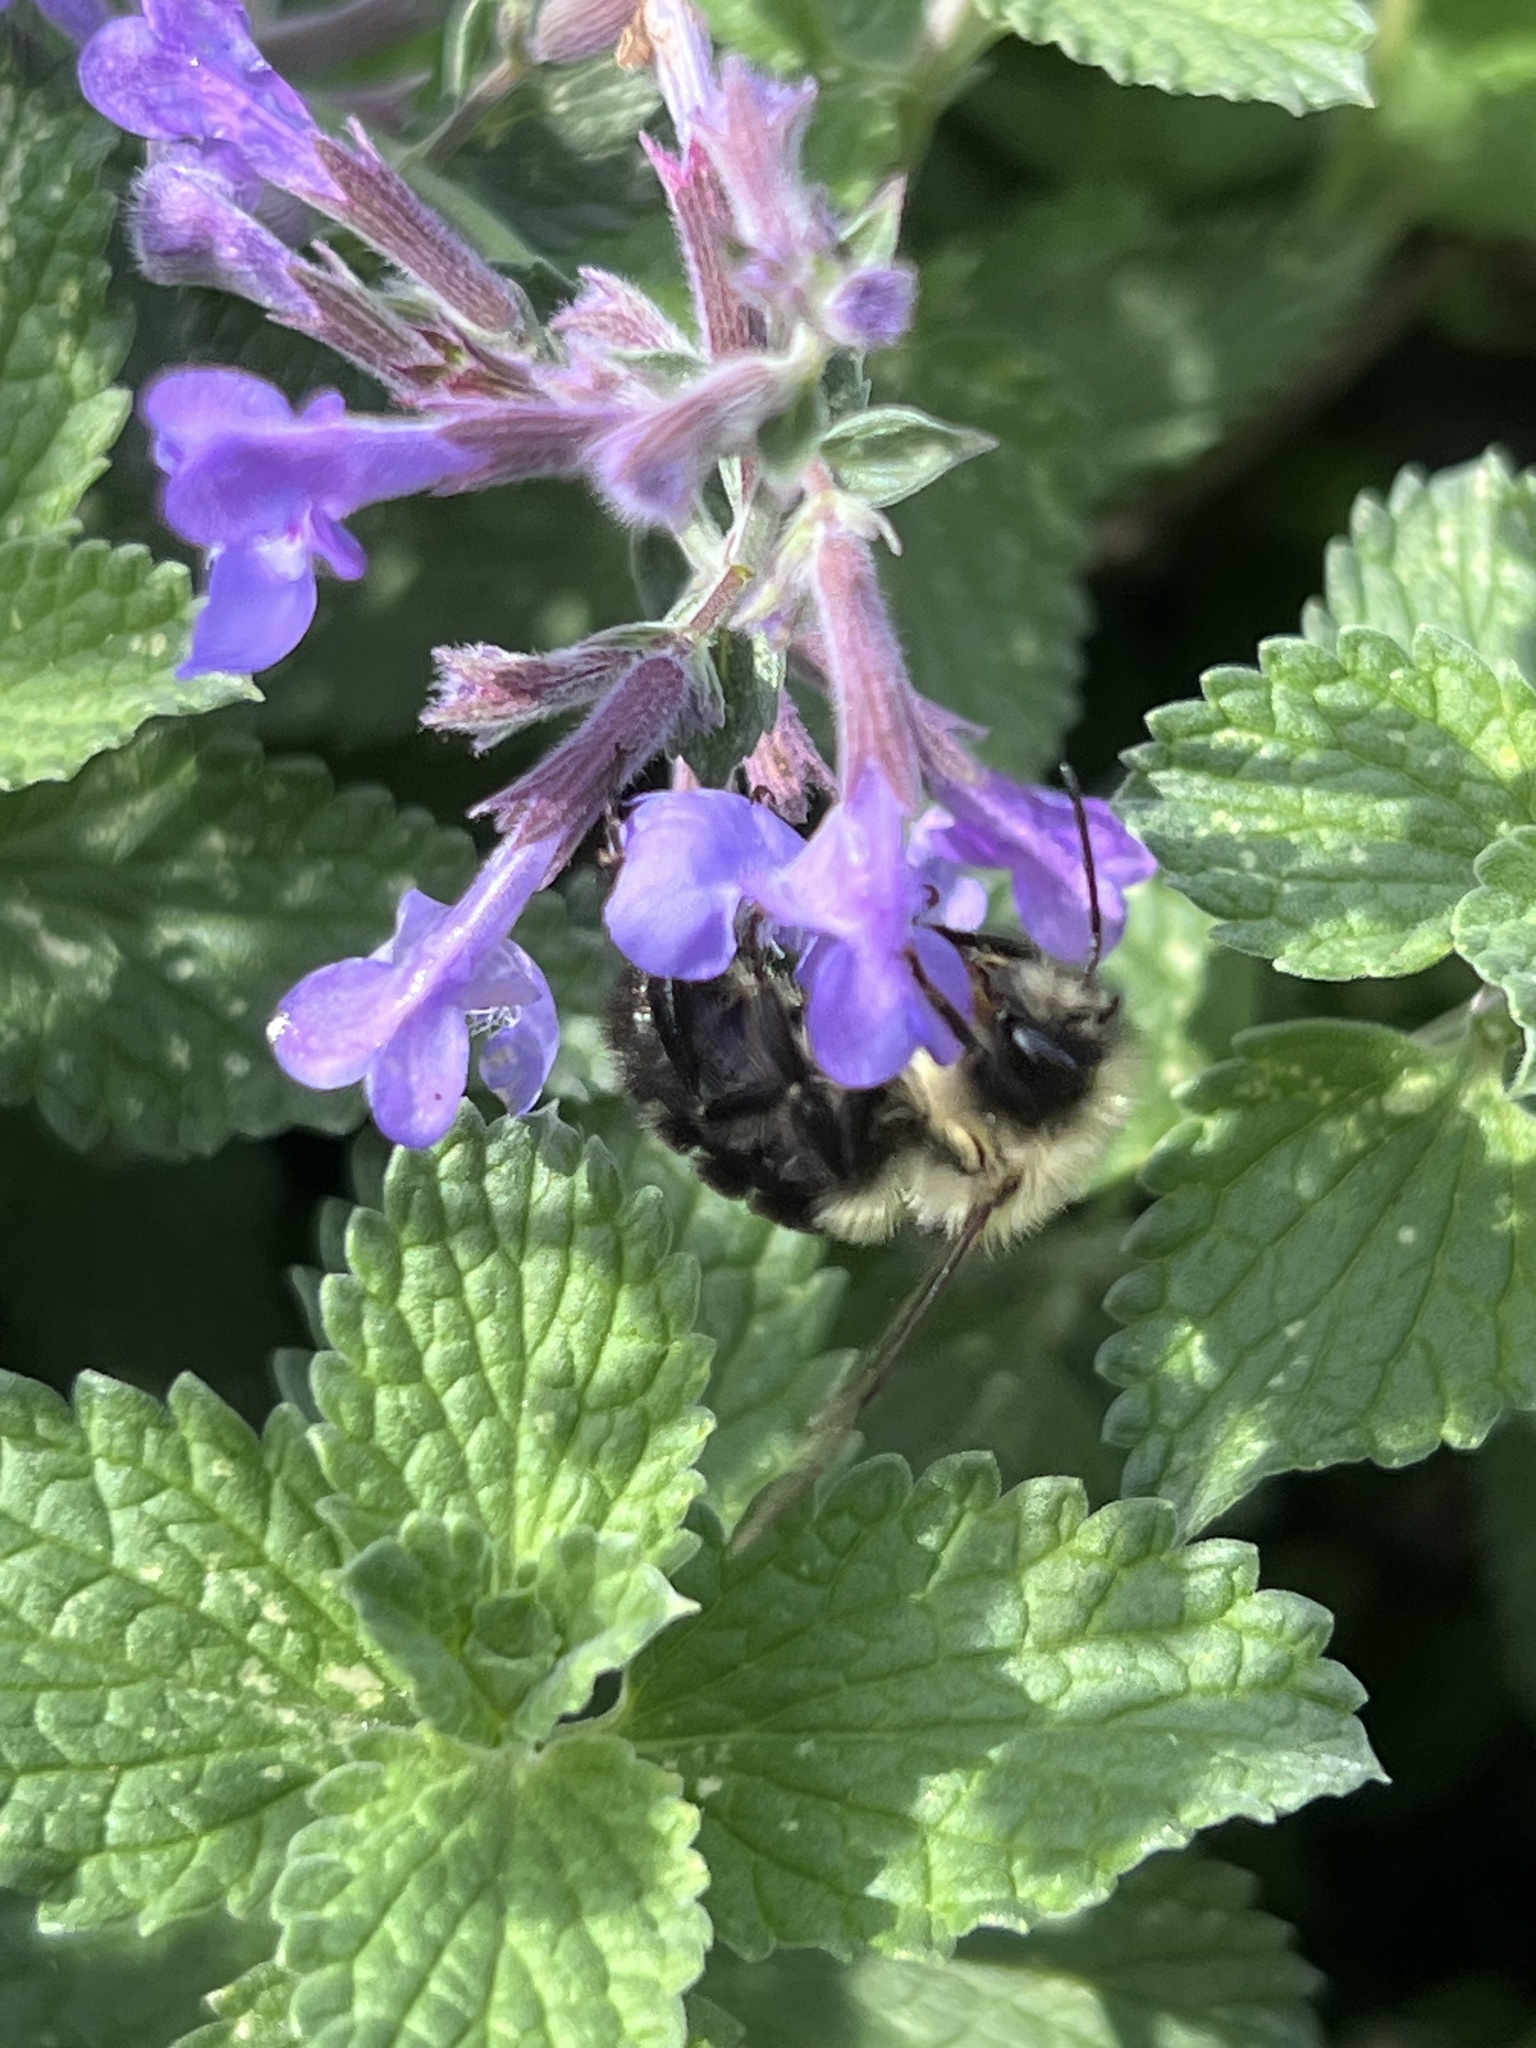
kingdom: Animalia
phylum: Arthropoda
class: Insecta
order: Hymenoptera
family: Apidae
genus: Bombus
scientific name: Bombus impatiens
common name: Common eastern bumble bee
